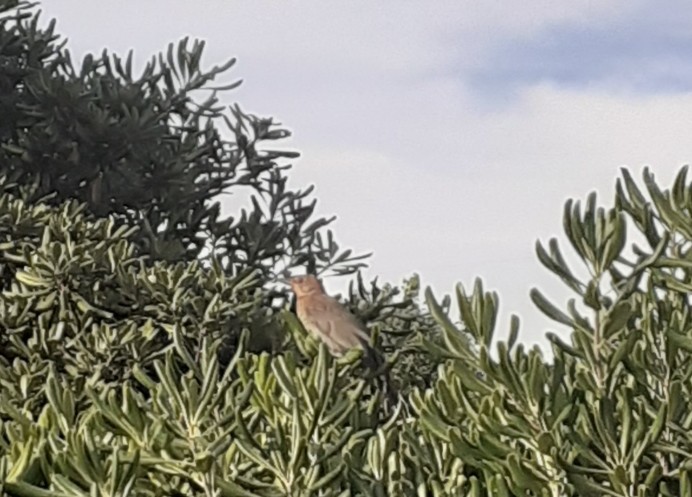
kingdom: Animalia
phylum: Chordata
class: Aves
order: Passeriformes
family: Turdidae
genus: Turdus
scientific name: Turdus merula
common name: Common blackbird
